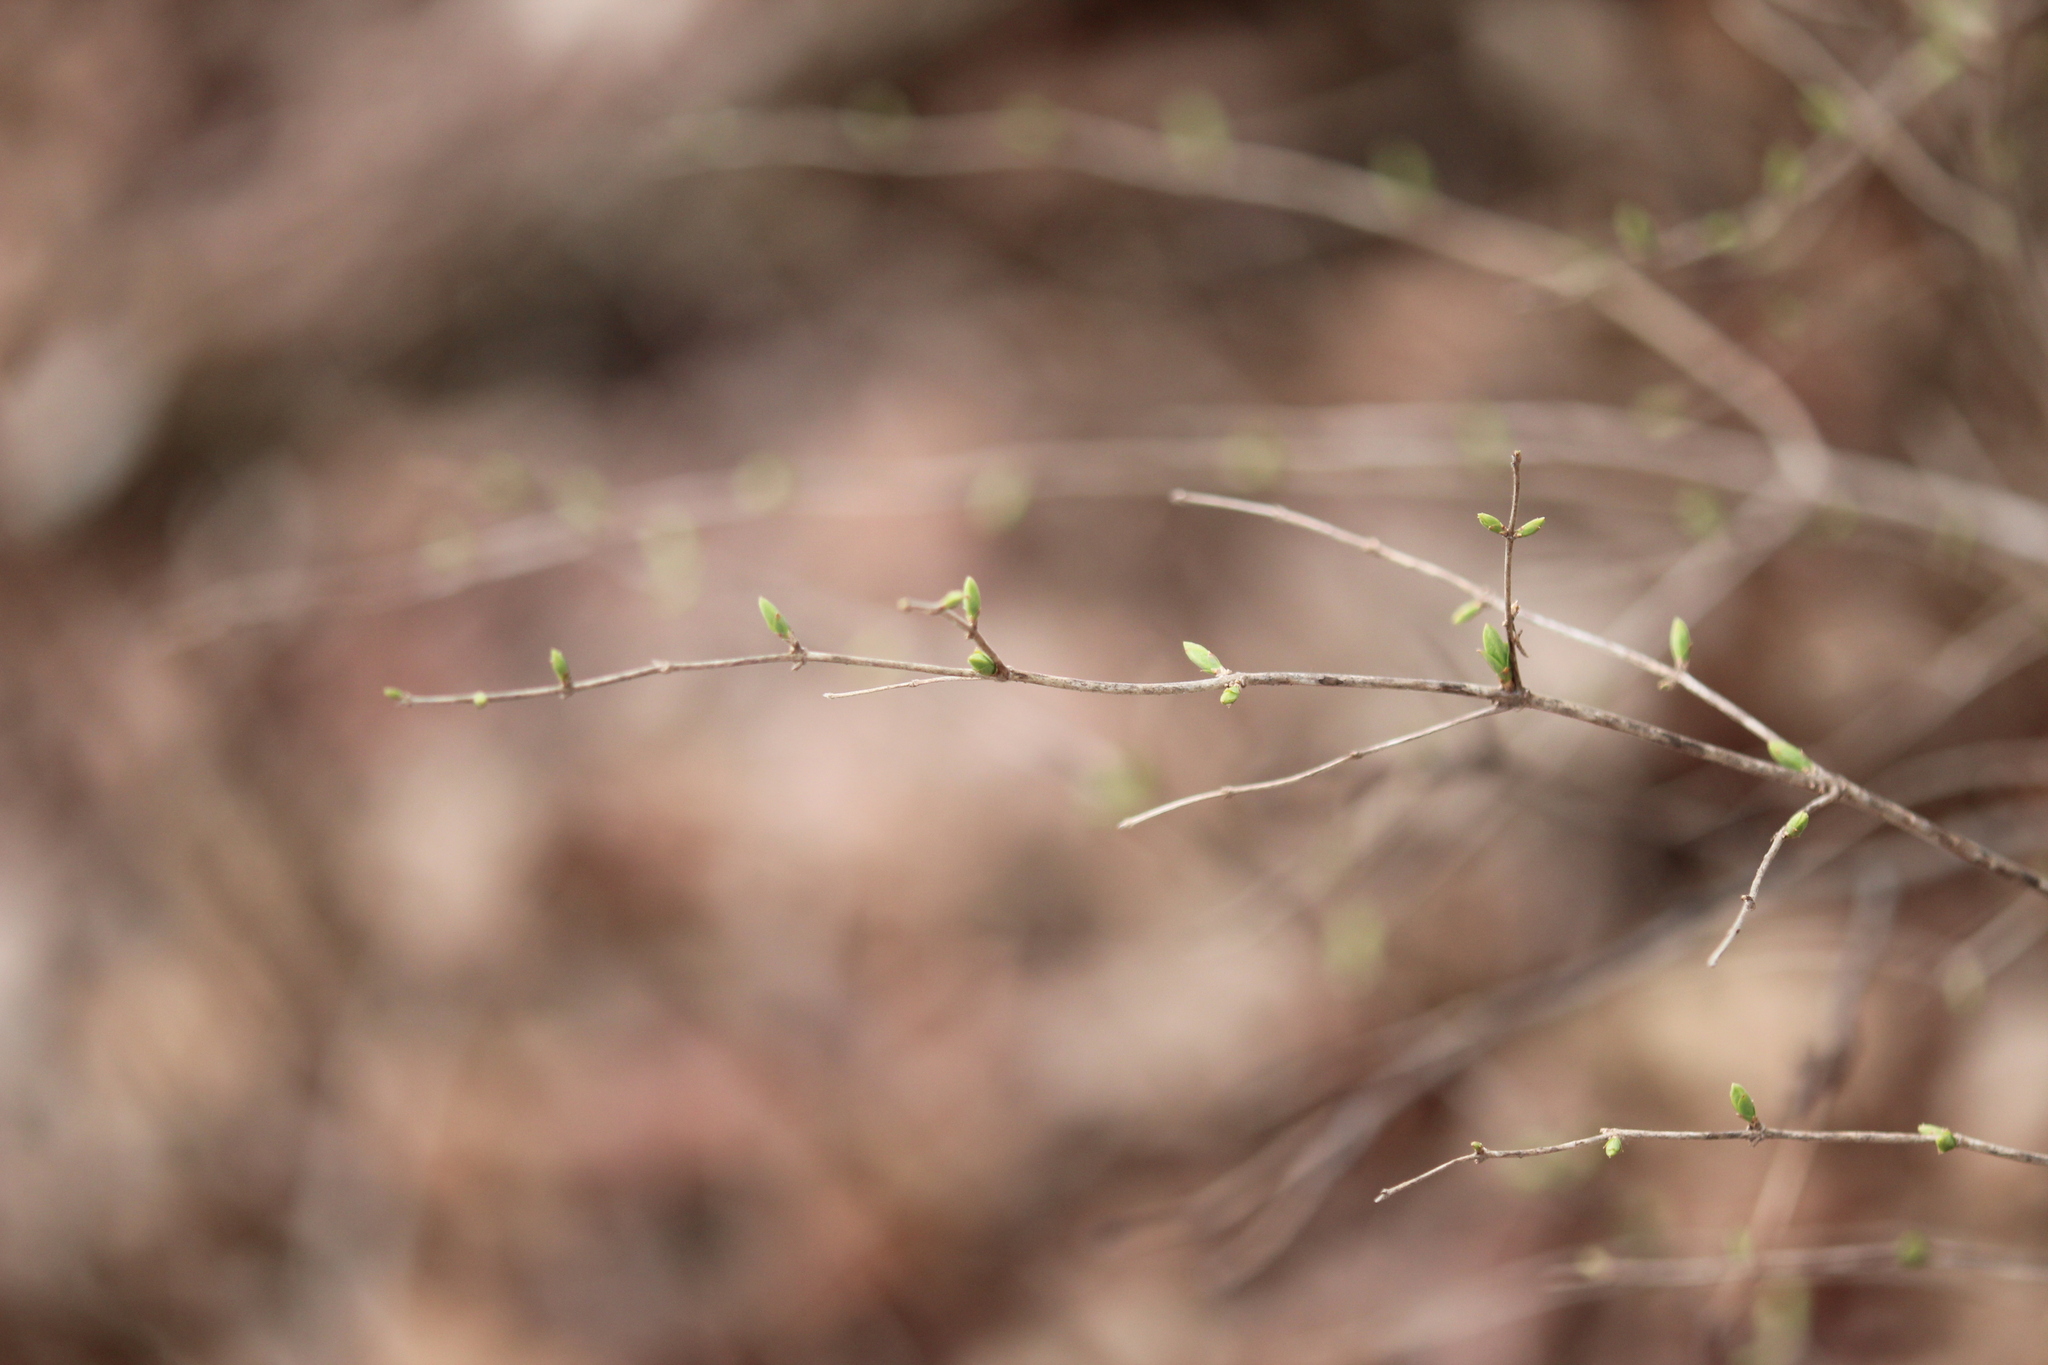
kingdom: Plantae
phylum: Tracheophyta
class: Magnoliopsida
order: Dipsacales
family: Caprifoliaceae
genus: Lonicera
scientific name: Lonicera morrowii
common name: Morrow's honeysuckle
